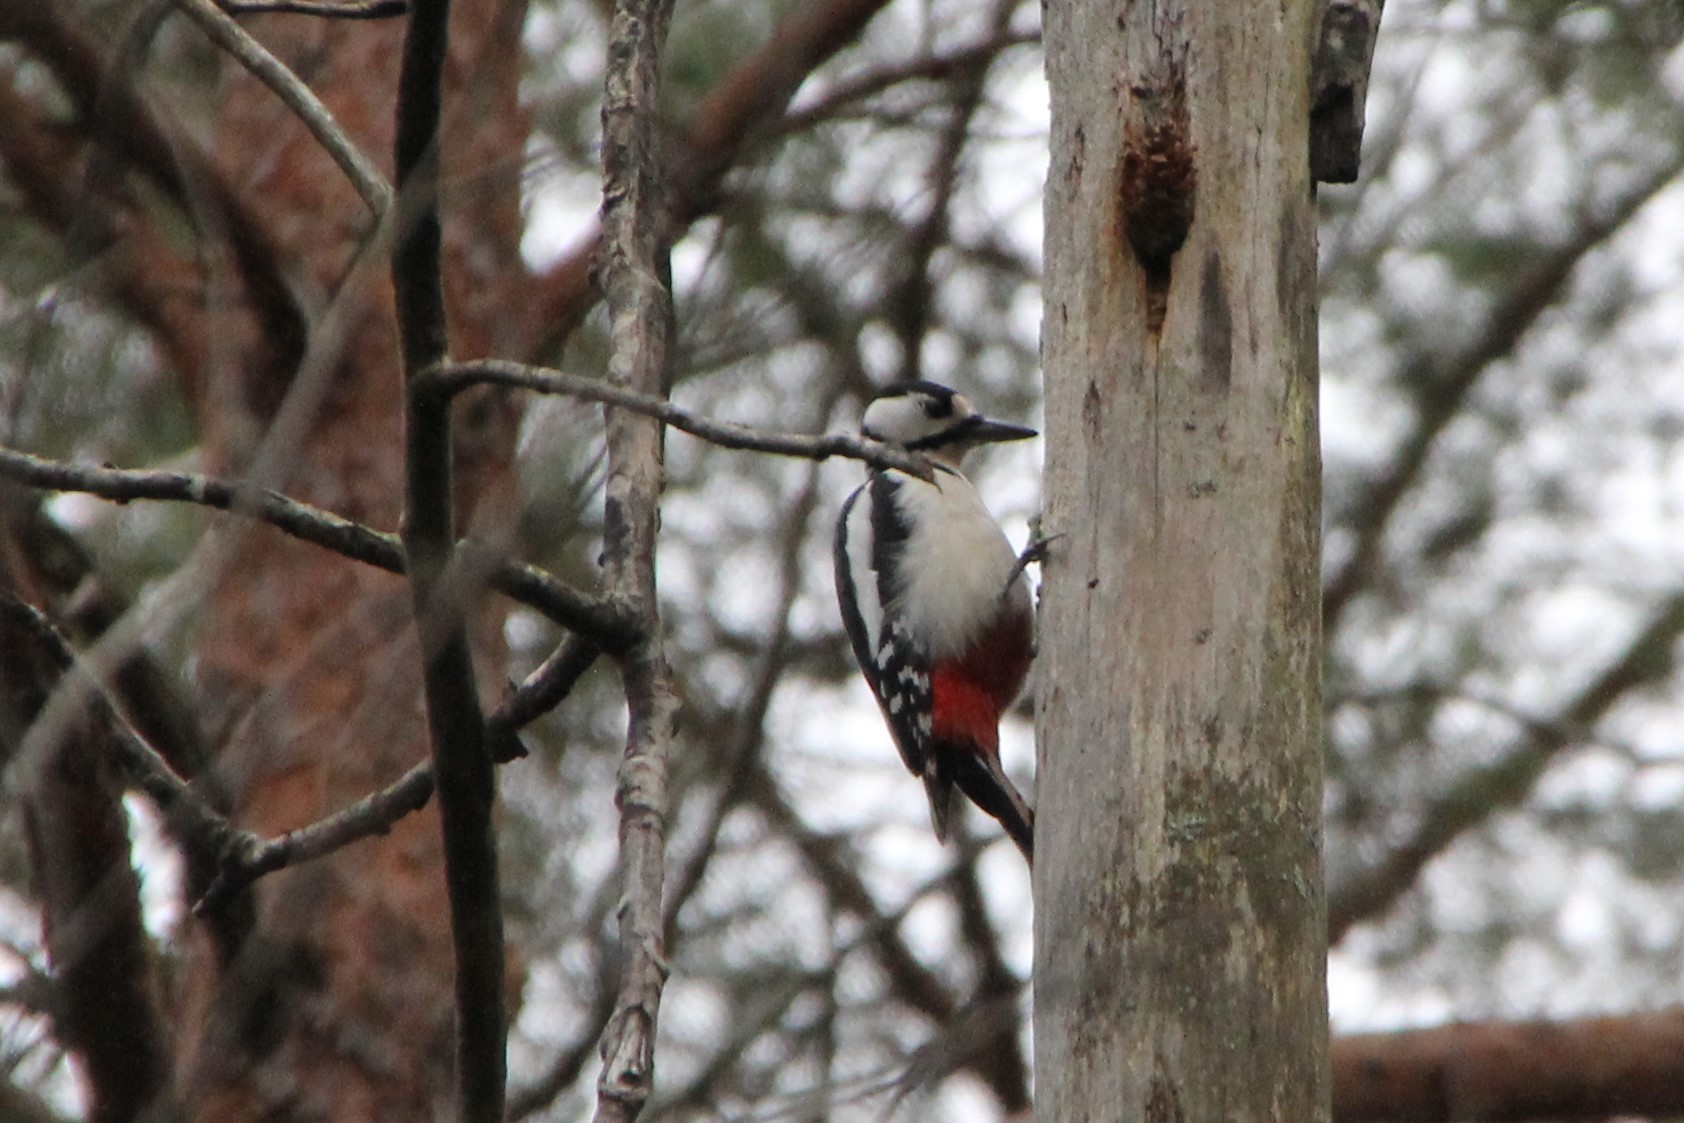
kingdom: Animalia
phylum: Chordata
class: Aves
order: Piciformes
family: Picidae
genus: Dendrocopos
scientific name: Dendrocopos major
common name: Great spotted woodpecker
